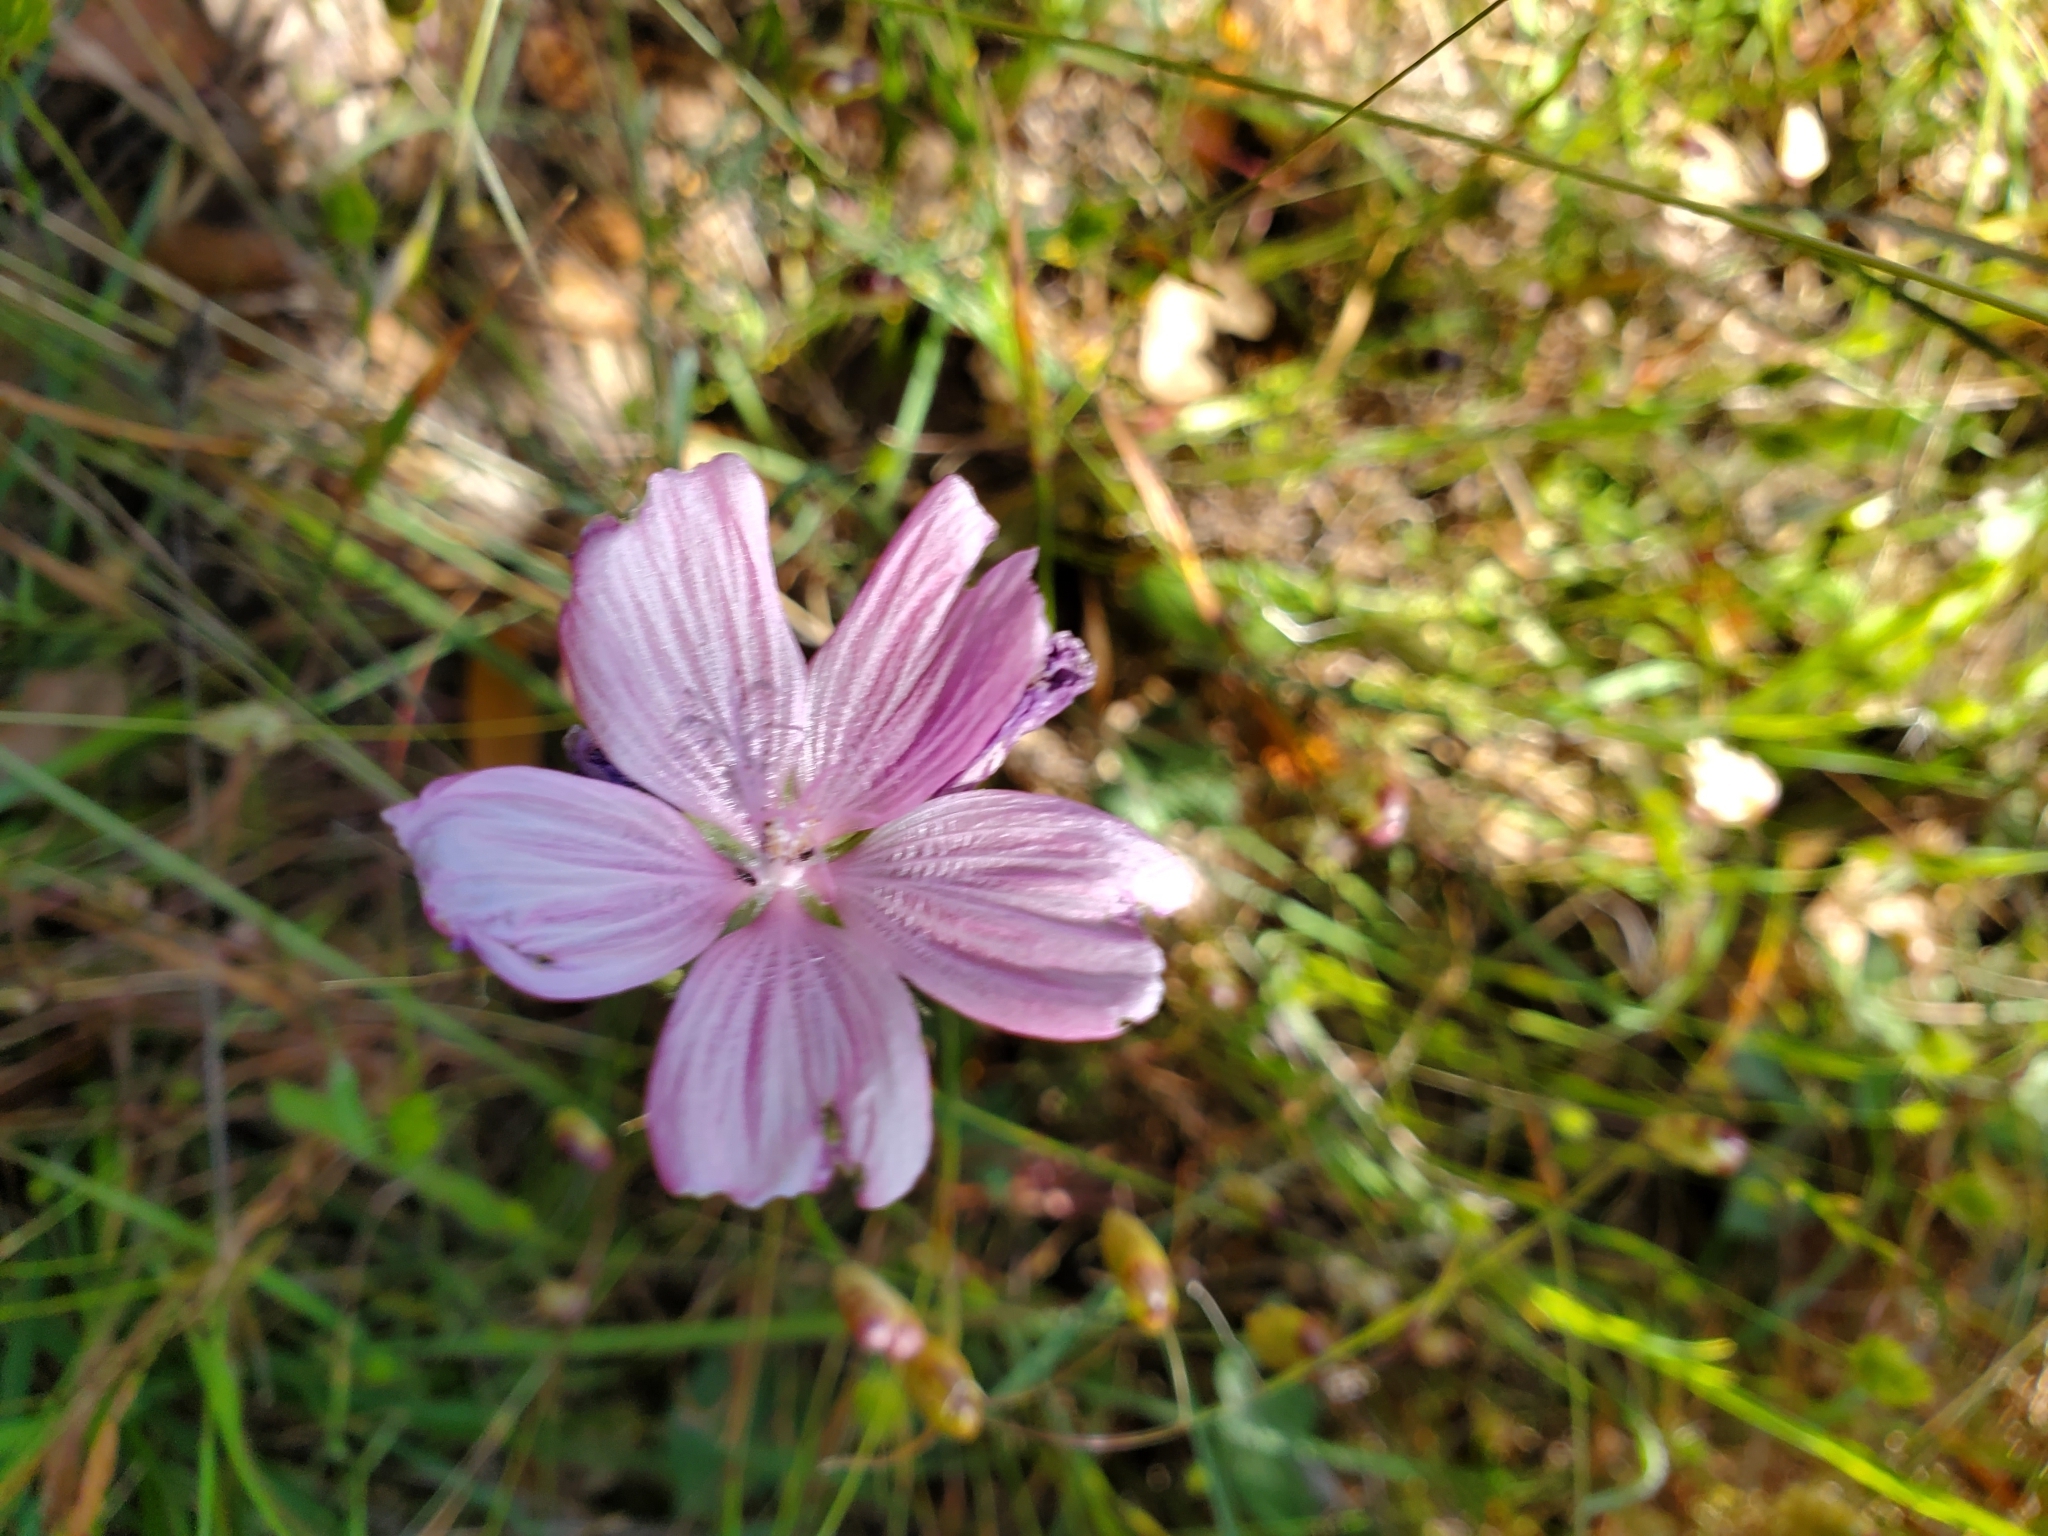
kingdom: Plantae
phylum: Tracheophyta
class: Magnoliopsida
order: Malvales
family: Malvaceae
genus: Sidalcea
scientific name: Sidalcea malviflora
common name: Greek mallow
